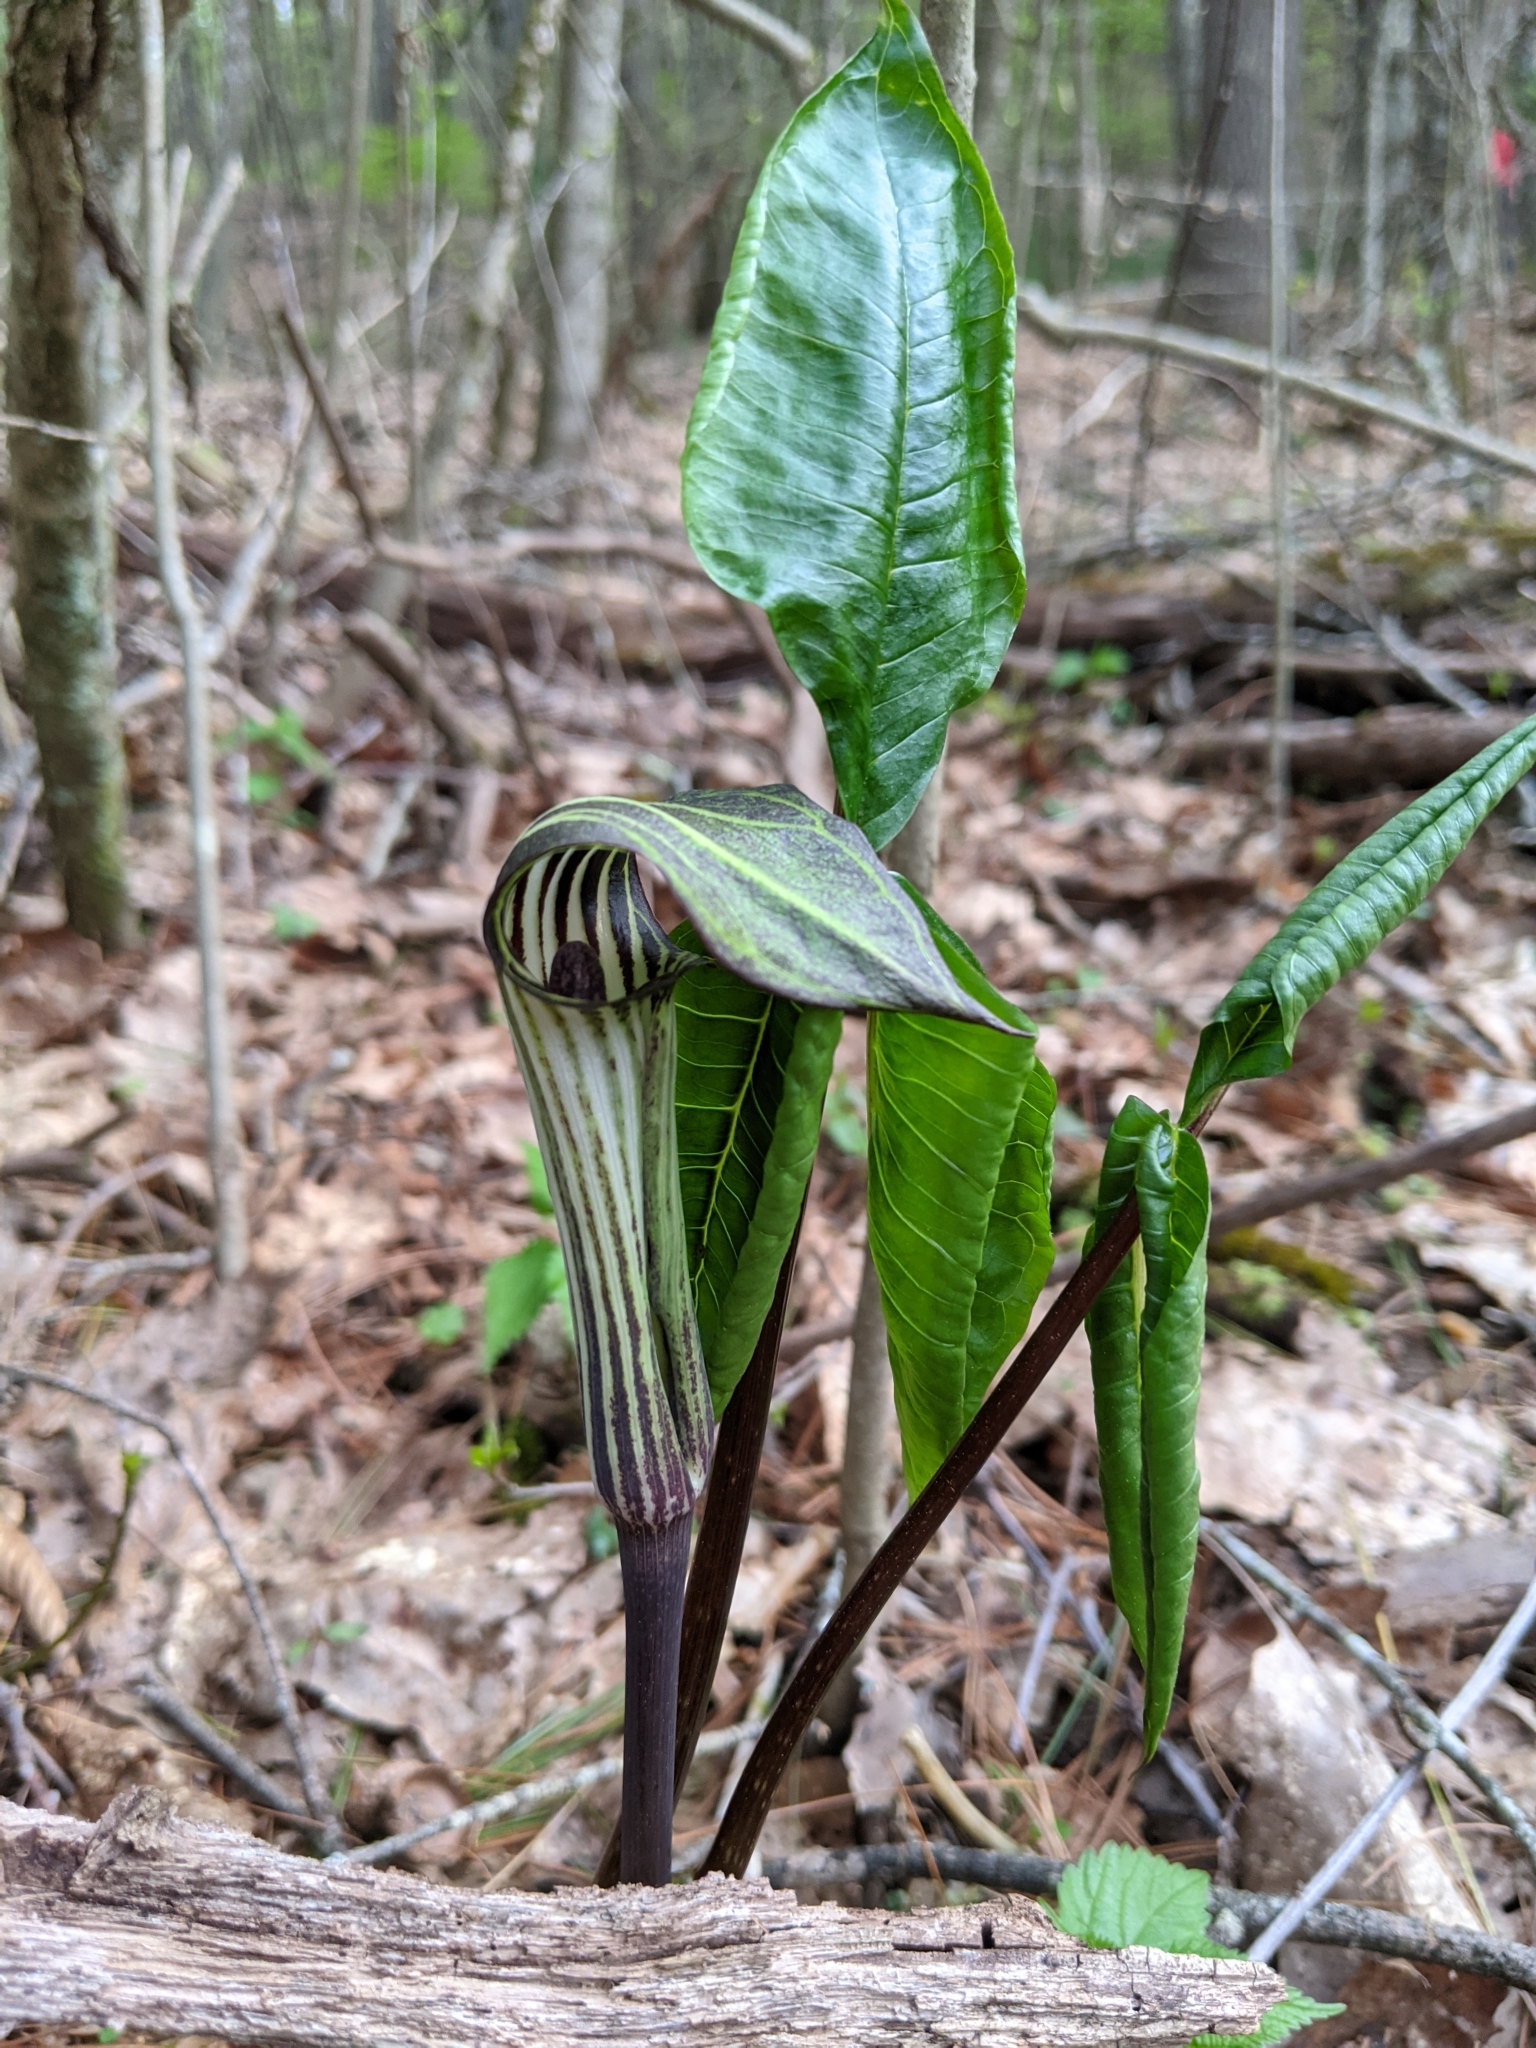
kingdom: Plantae
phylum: Tracheophyta
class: Liliopsida
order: Alismatales
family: Araceae
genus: Arisaema
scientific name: Arisaema triphyllum
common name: Jack-in-the-pulpit
